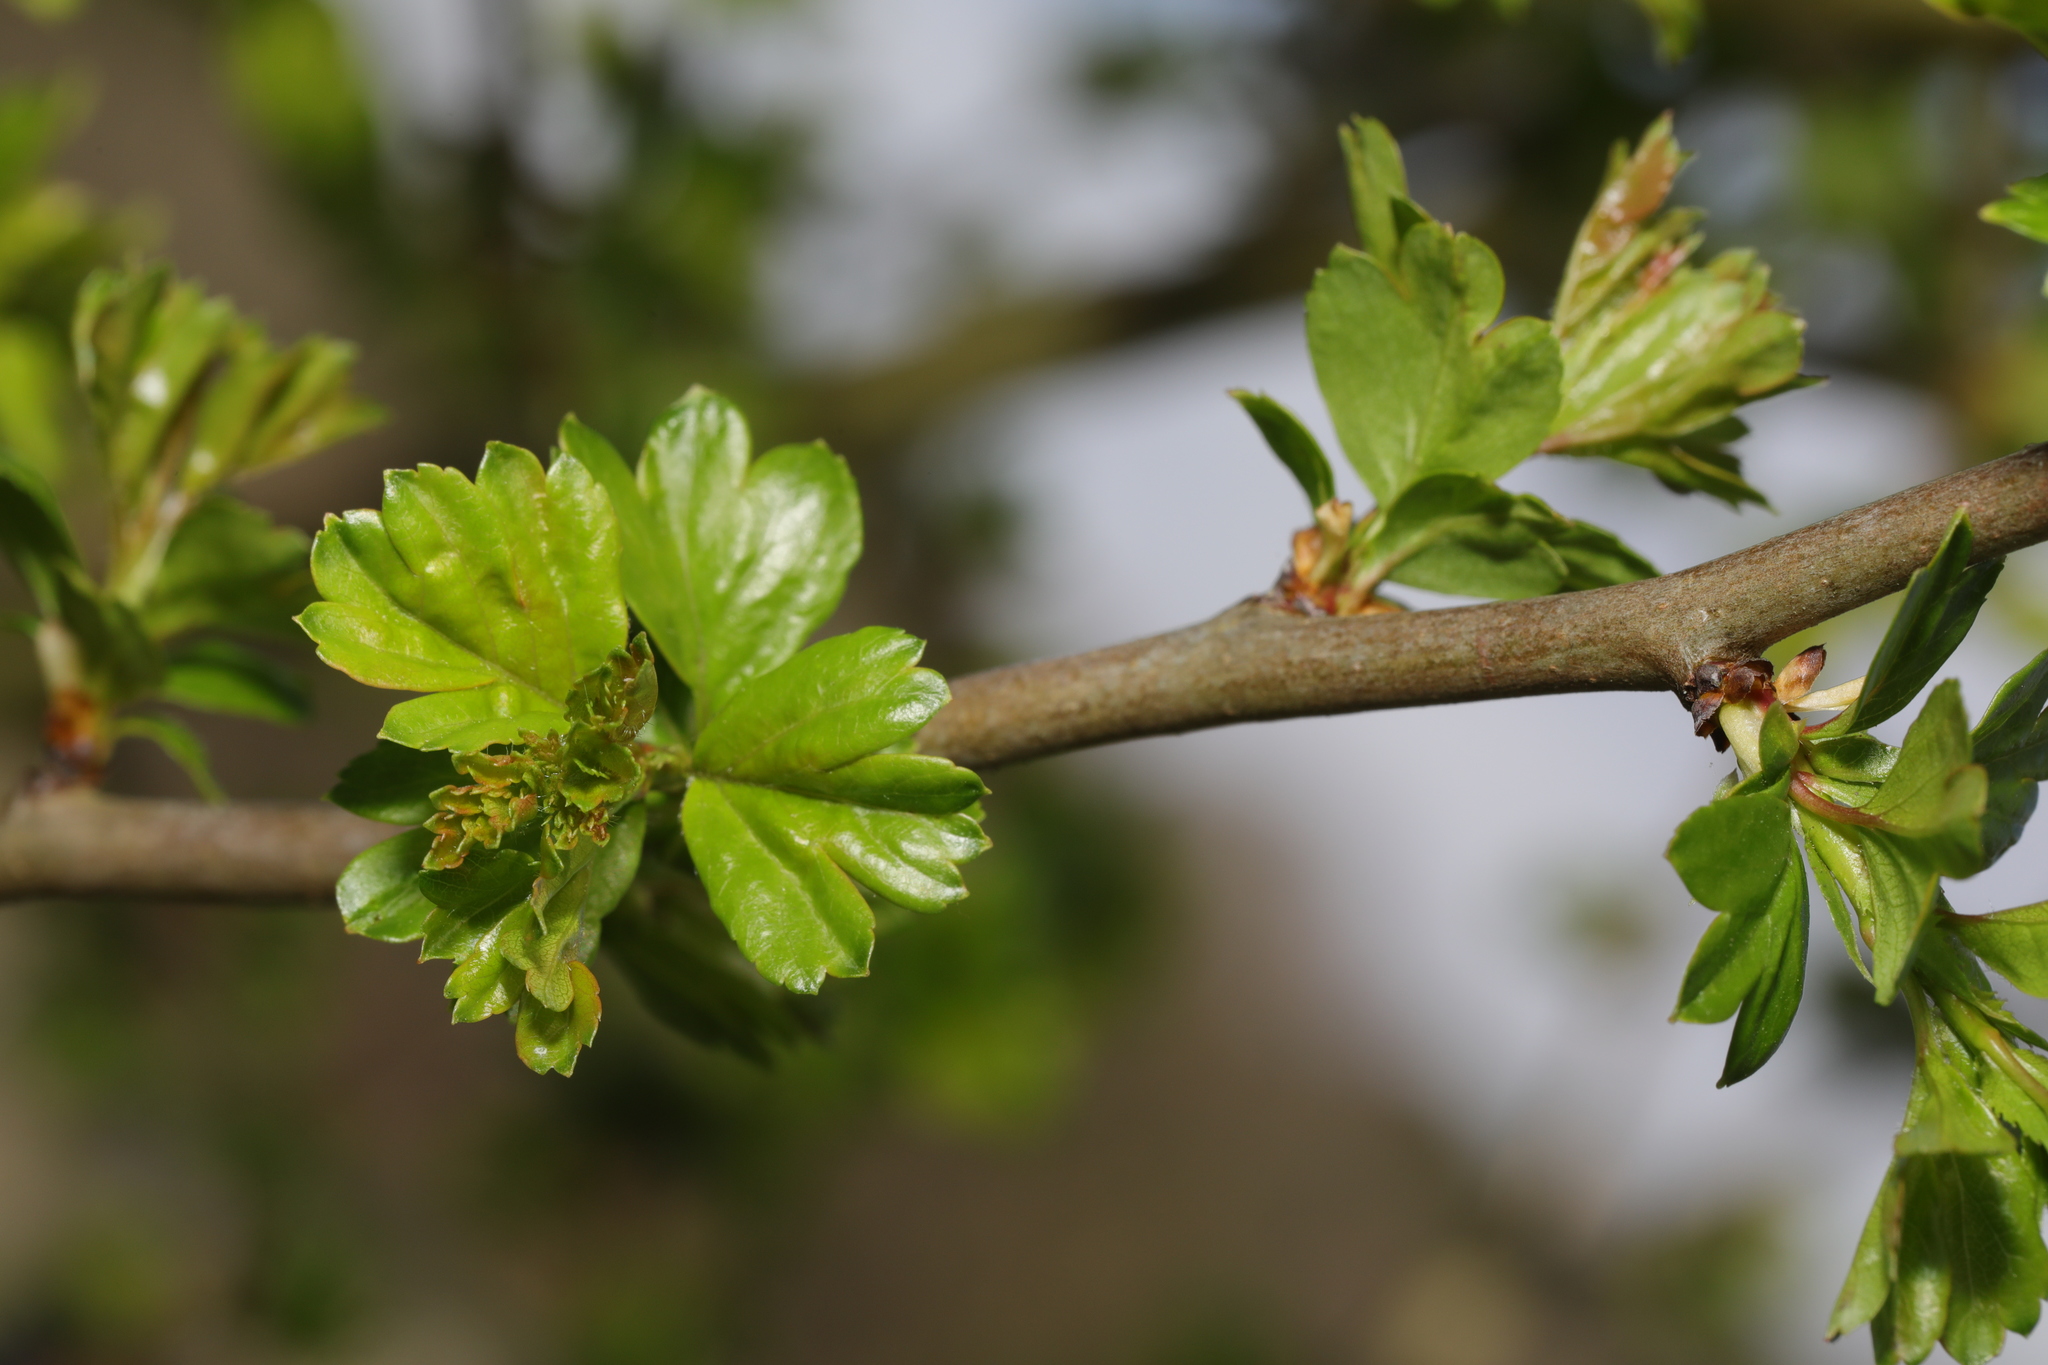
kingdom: Plantae
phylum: Tracheophyta
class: Magnoliopsida
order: Rosales
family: Rosaceae
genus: Crataegus
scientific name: Crataegus monogyna
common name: Hawthorn
